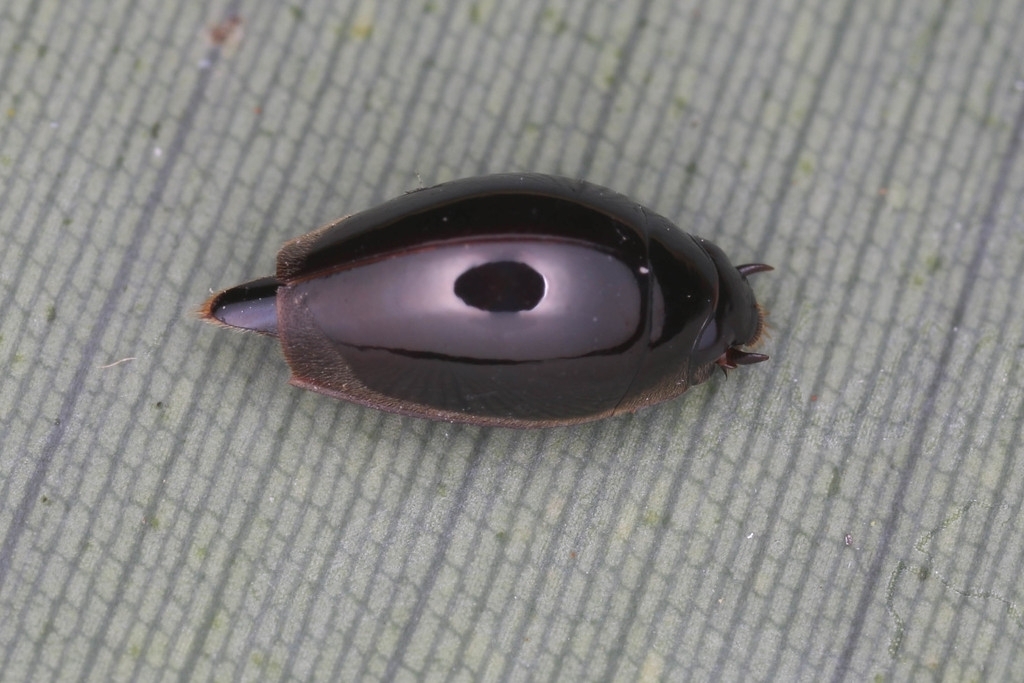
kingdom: Animalia
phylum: Arthropoda
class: Insecta
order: Coleoptera
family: Gyrinidae
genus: Gyretes
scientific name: Gyretes
